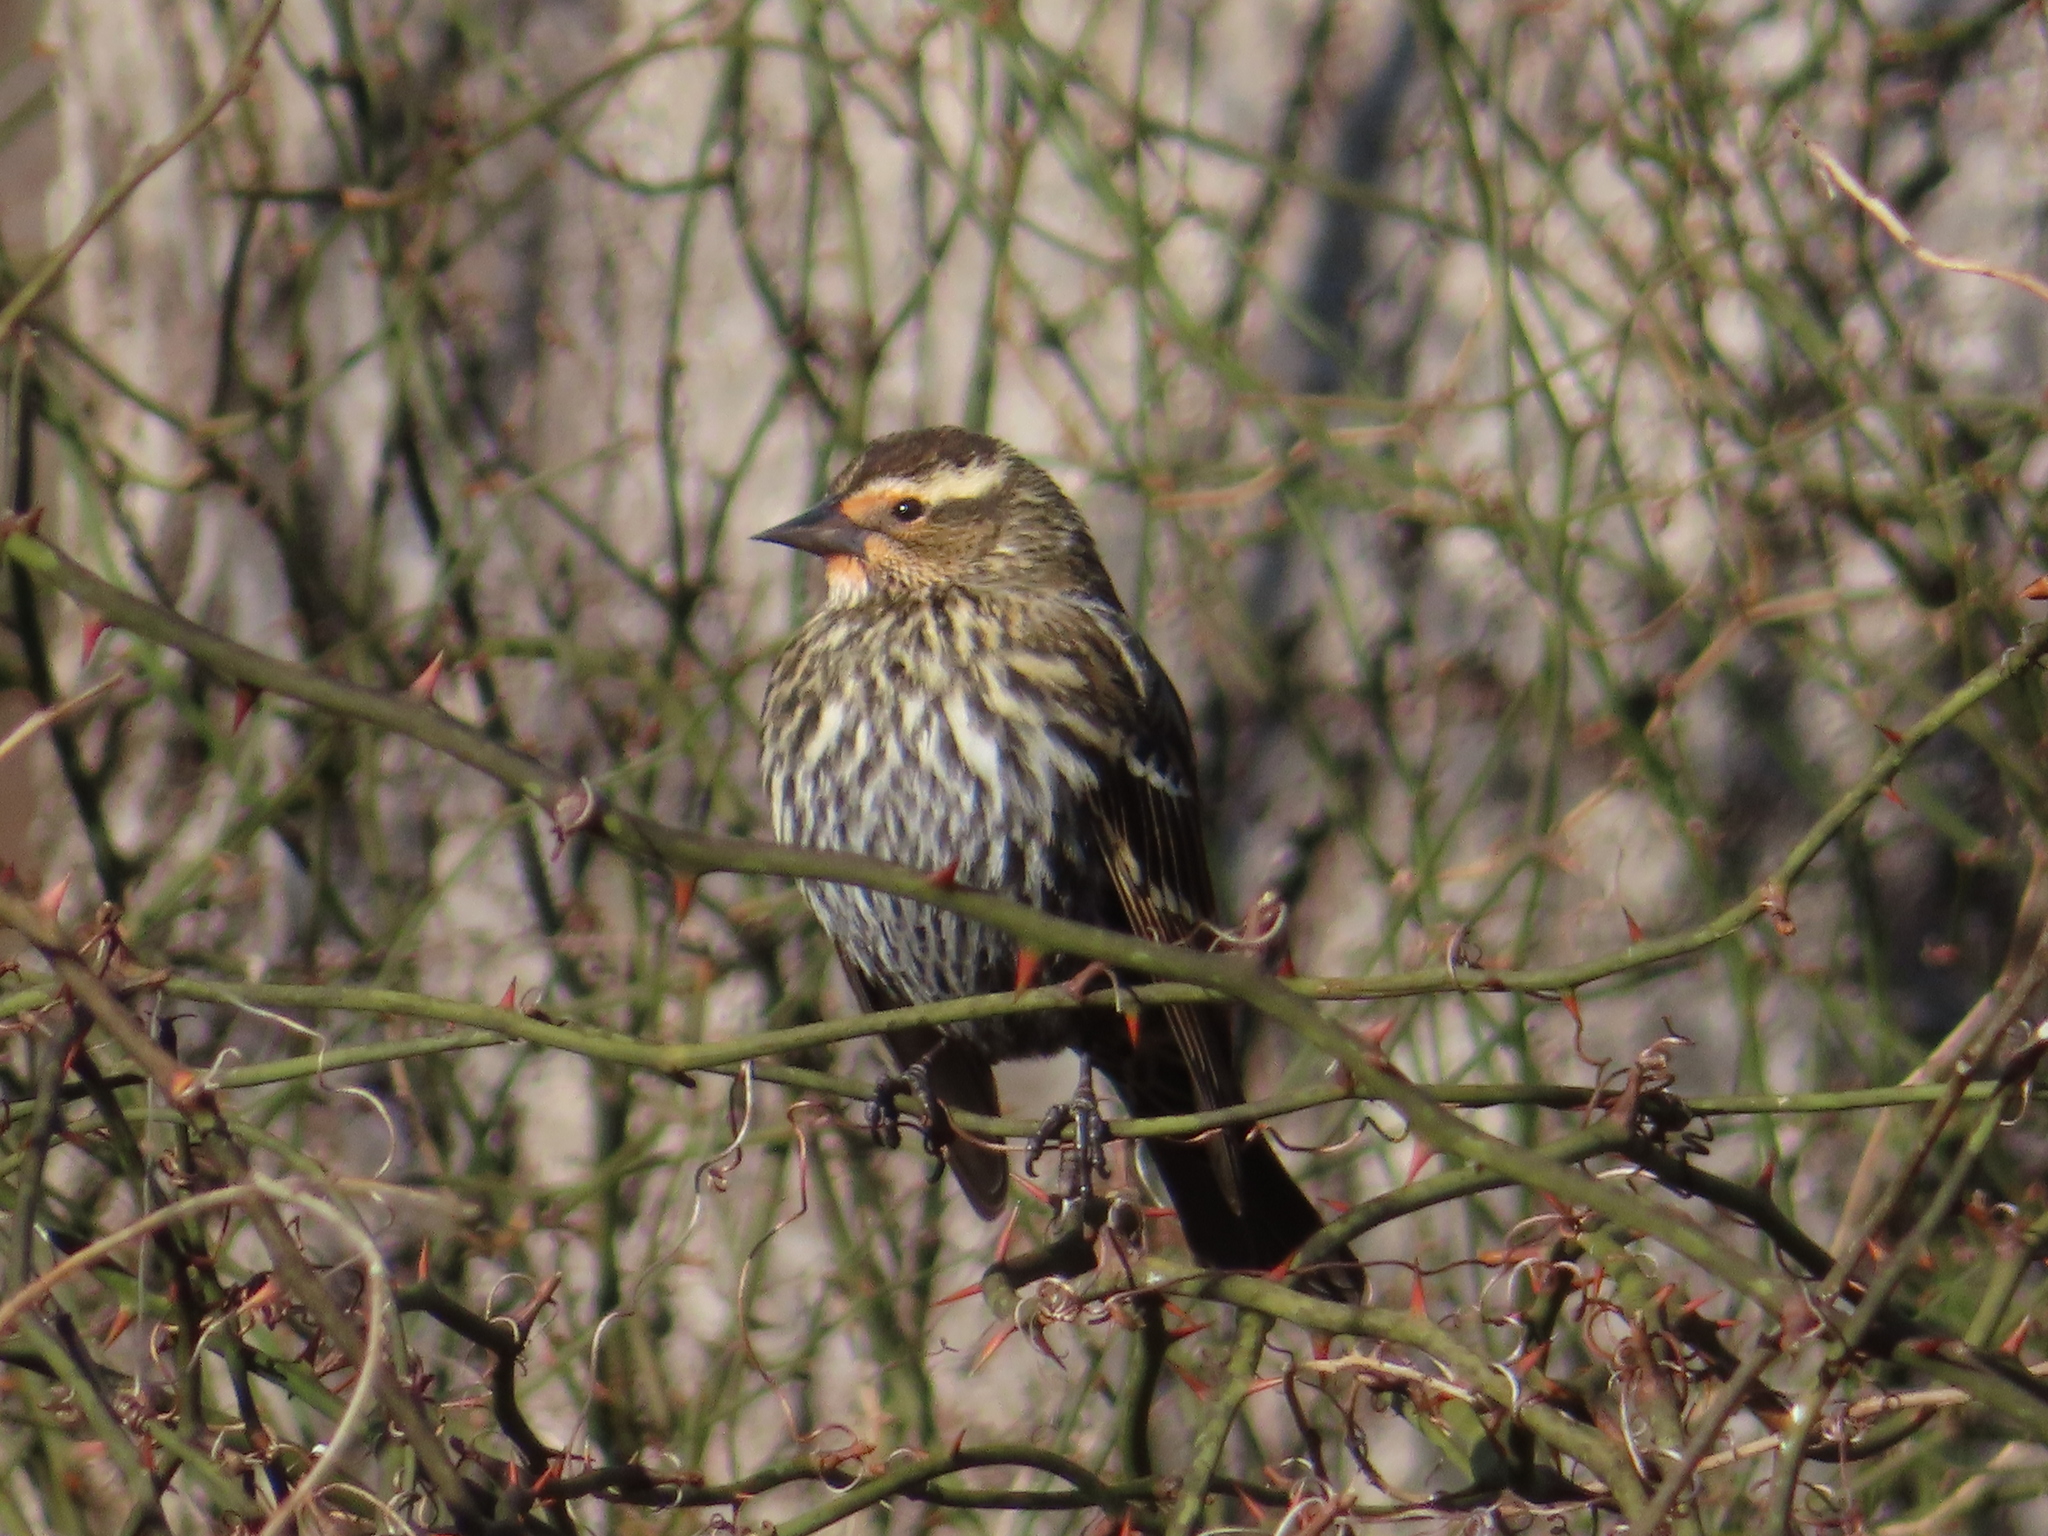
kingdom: Animalia
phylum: Chordata
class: Aves
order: Passeriformes
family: Icteridae
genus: Agelaius
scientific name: Agelaius phoeniceus
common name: Red-winged blackbird
